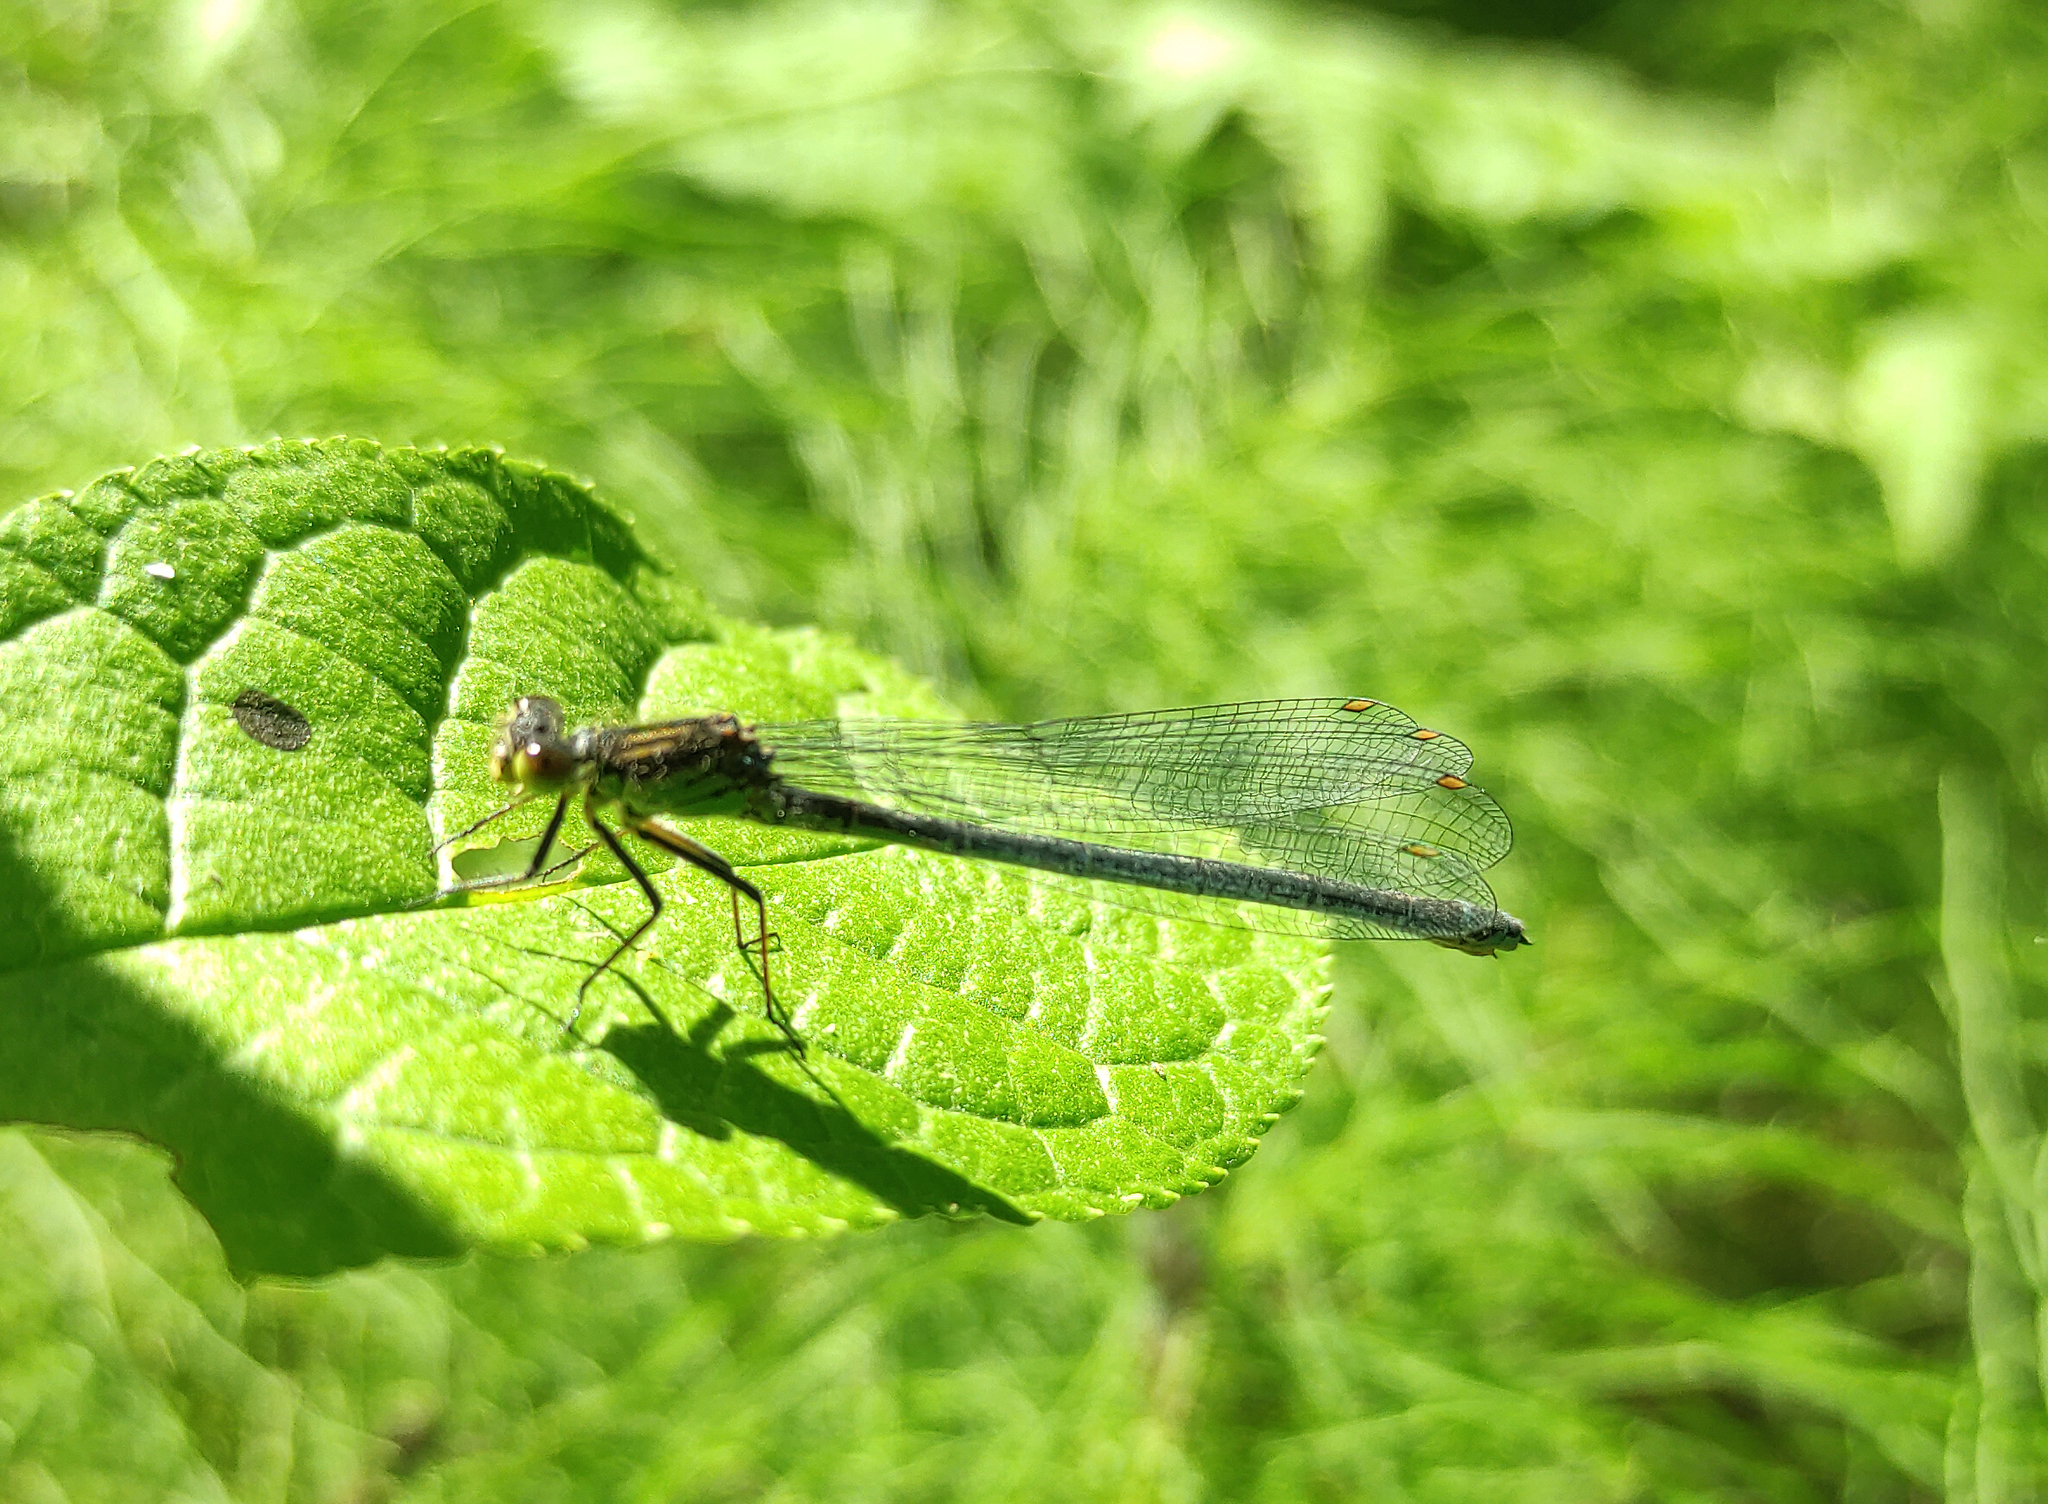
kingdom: Animalia
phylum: Arthropoda
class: Insecta
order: Odonata
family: Coenagrionidae
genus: Erythromma
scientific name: Erythromma najas
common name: Red-eyed damselfly
